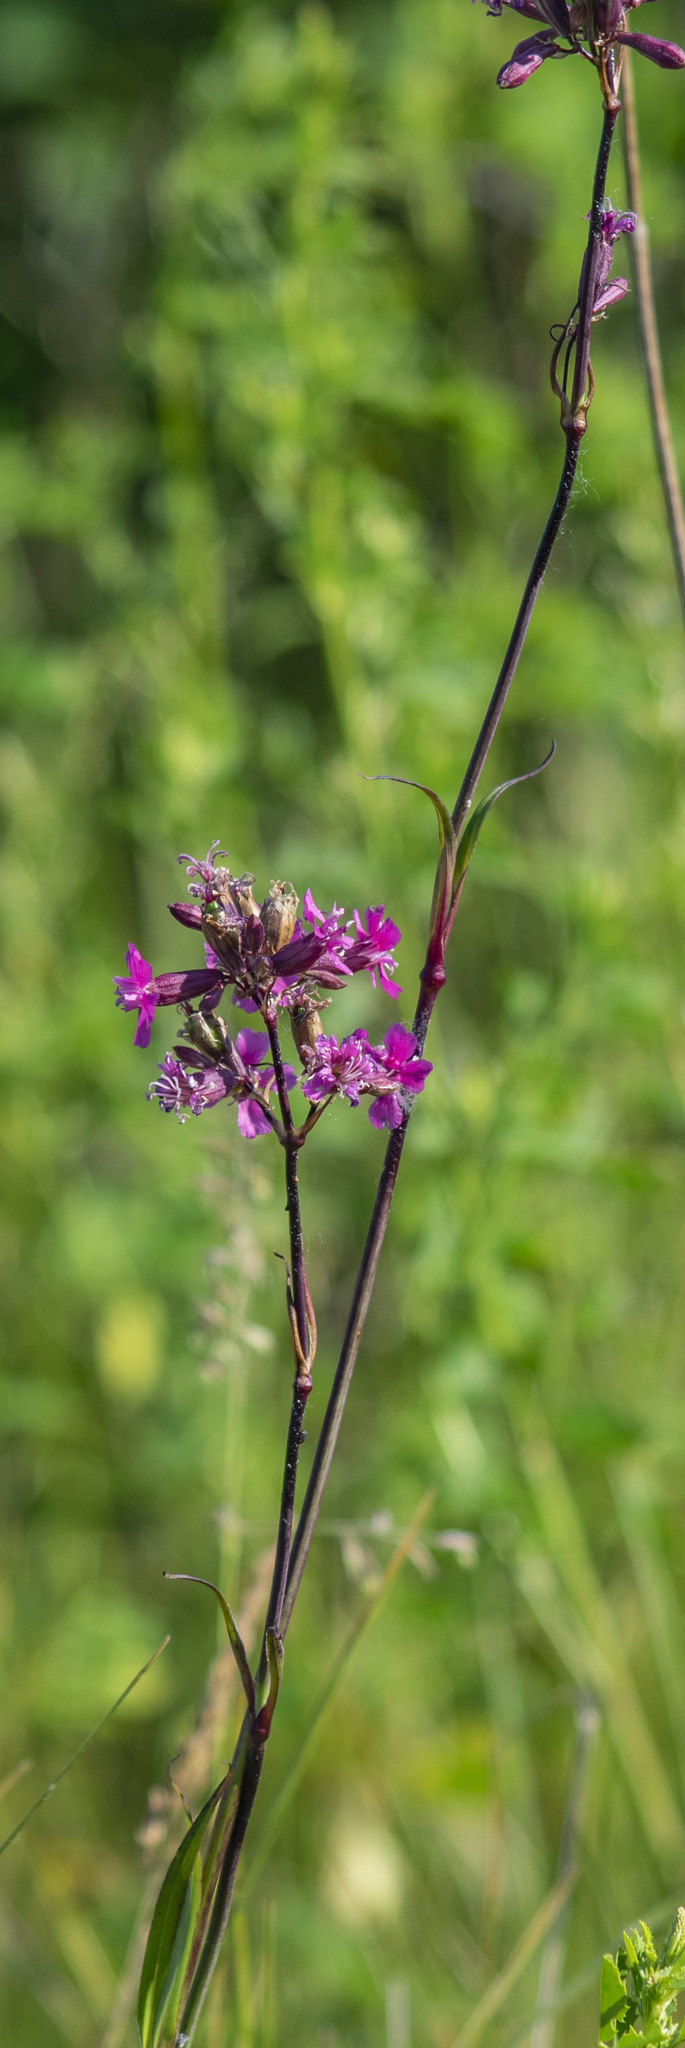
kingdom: Plantae
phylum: Tracheophyta
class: Magnoliopsida
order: Caryophyllales
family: Caryophyllaceae
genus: Viscaria
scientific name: Viscaria vulgaris
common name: Clammy campion
